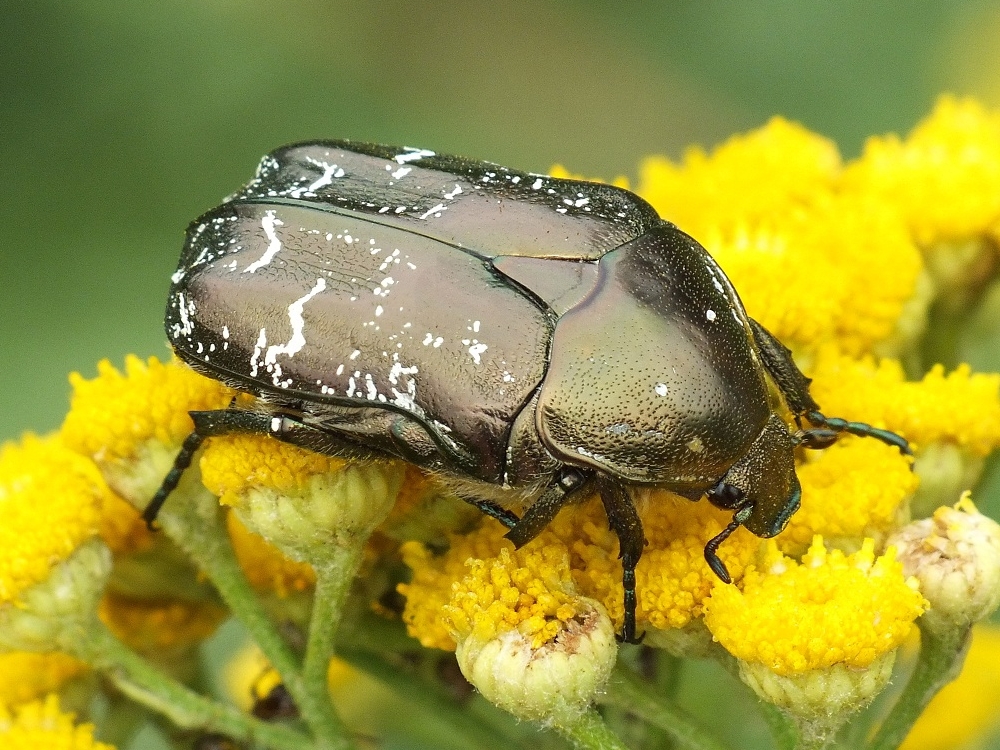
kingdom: Animalia
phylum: Arthropoda
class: Insecta
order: Coleoptera
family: Scarabaeidae
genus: Protaetia
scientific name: Protaetia cuprea
